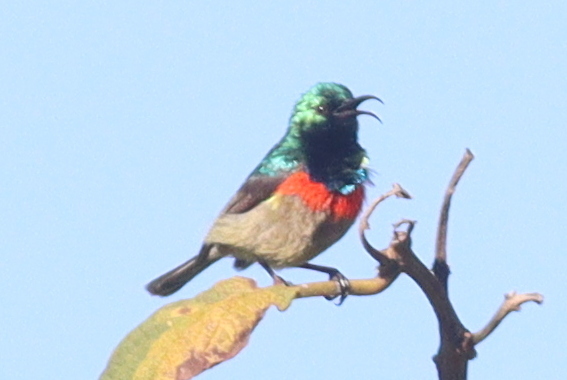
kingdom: Animalia
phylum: Chordata
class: Aves
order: Passeriformes
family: Nectariniidae
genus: Cinnyris
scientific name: Cinnyris mediocris
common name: Eastern double-collared sunbird
